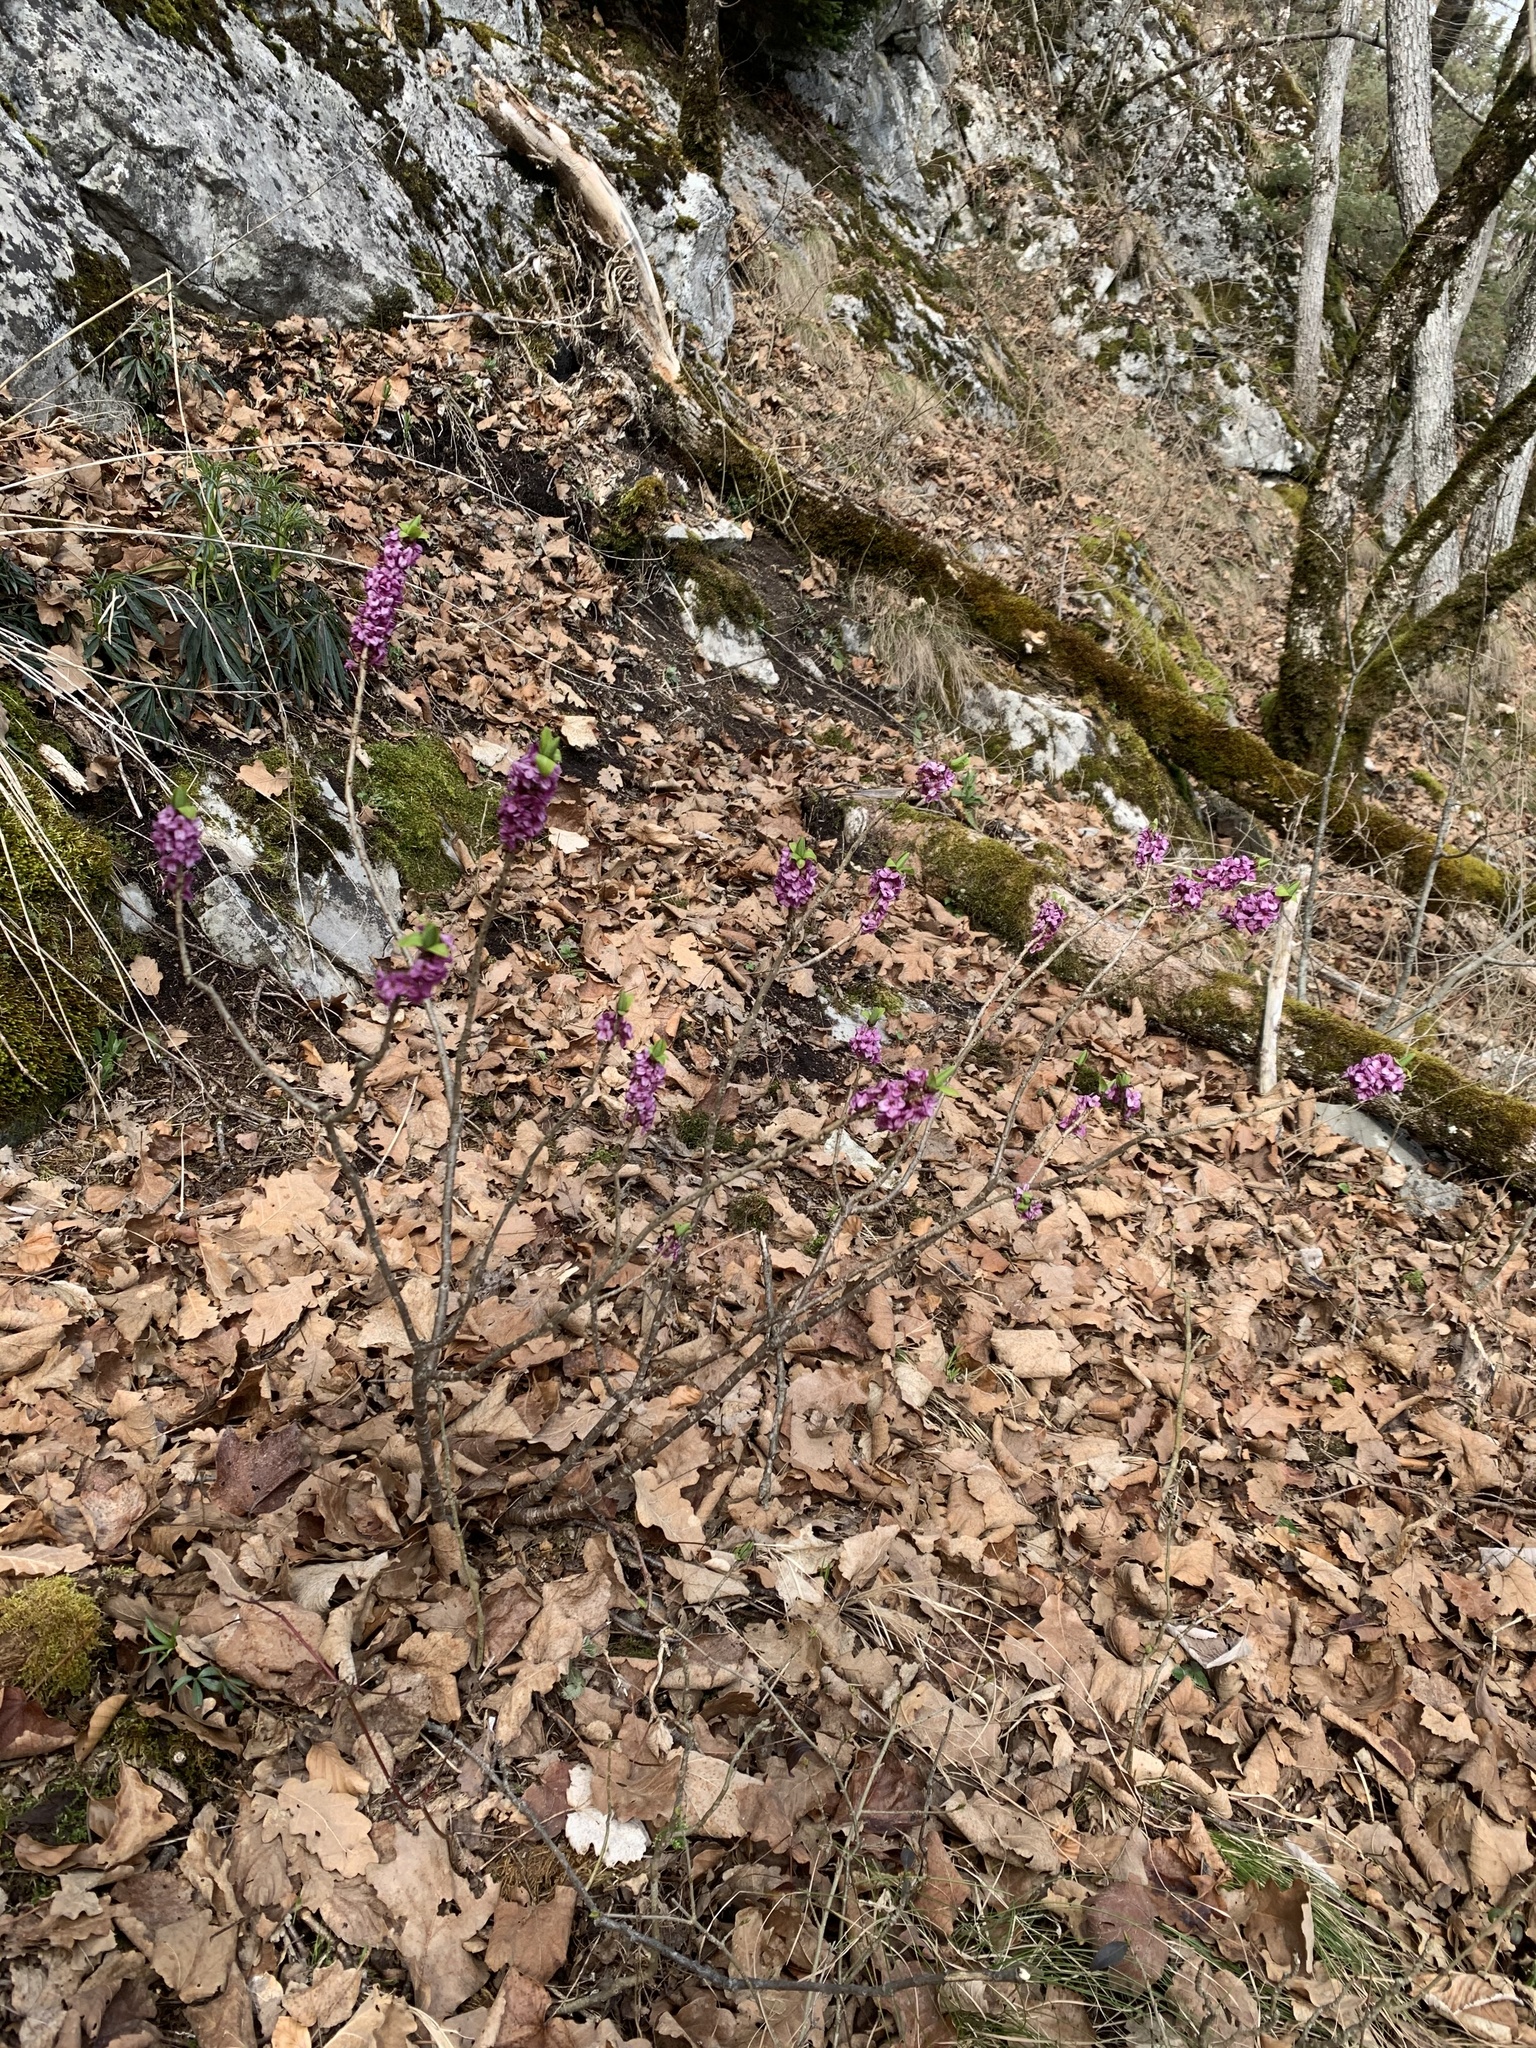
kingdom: Plantae
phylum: Tracheophyta
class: Magnoliopsida
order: Malvales
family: Thymelaeaceae
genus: Daphne
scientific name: Daphne mezereum
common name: Mezereon
